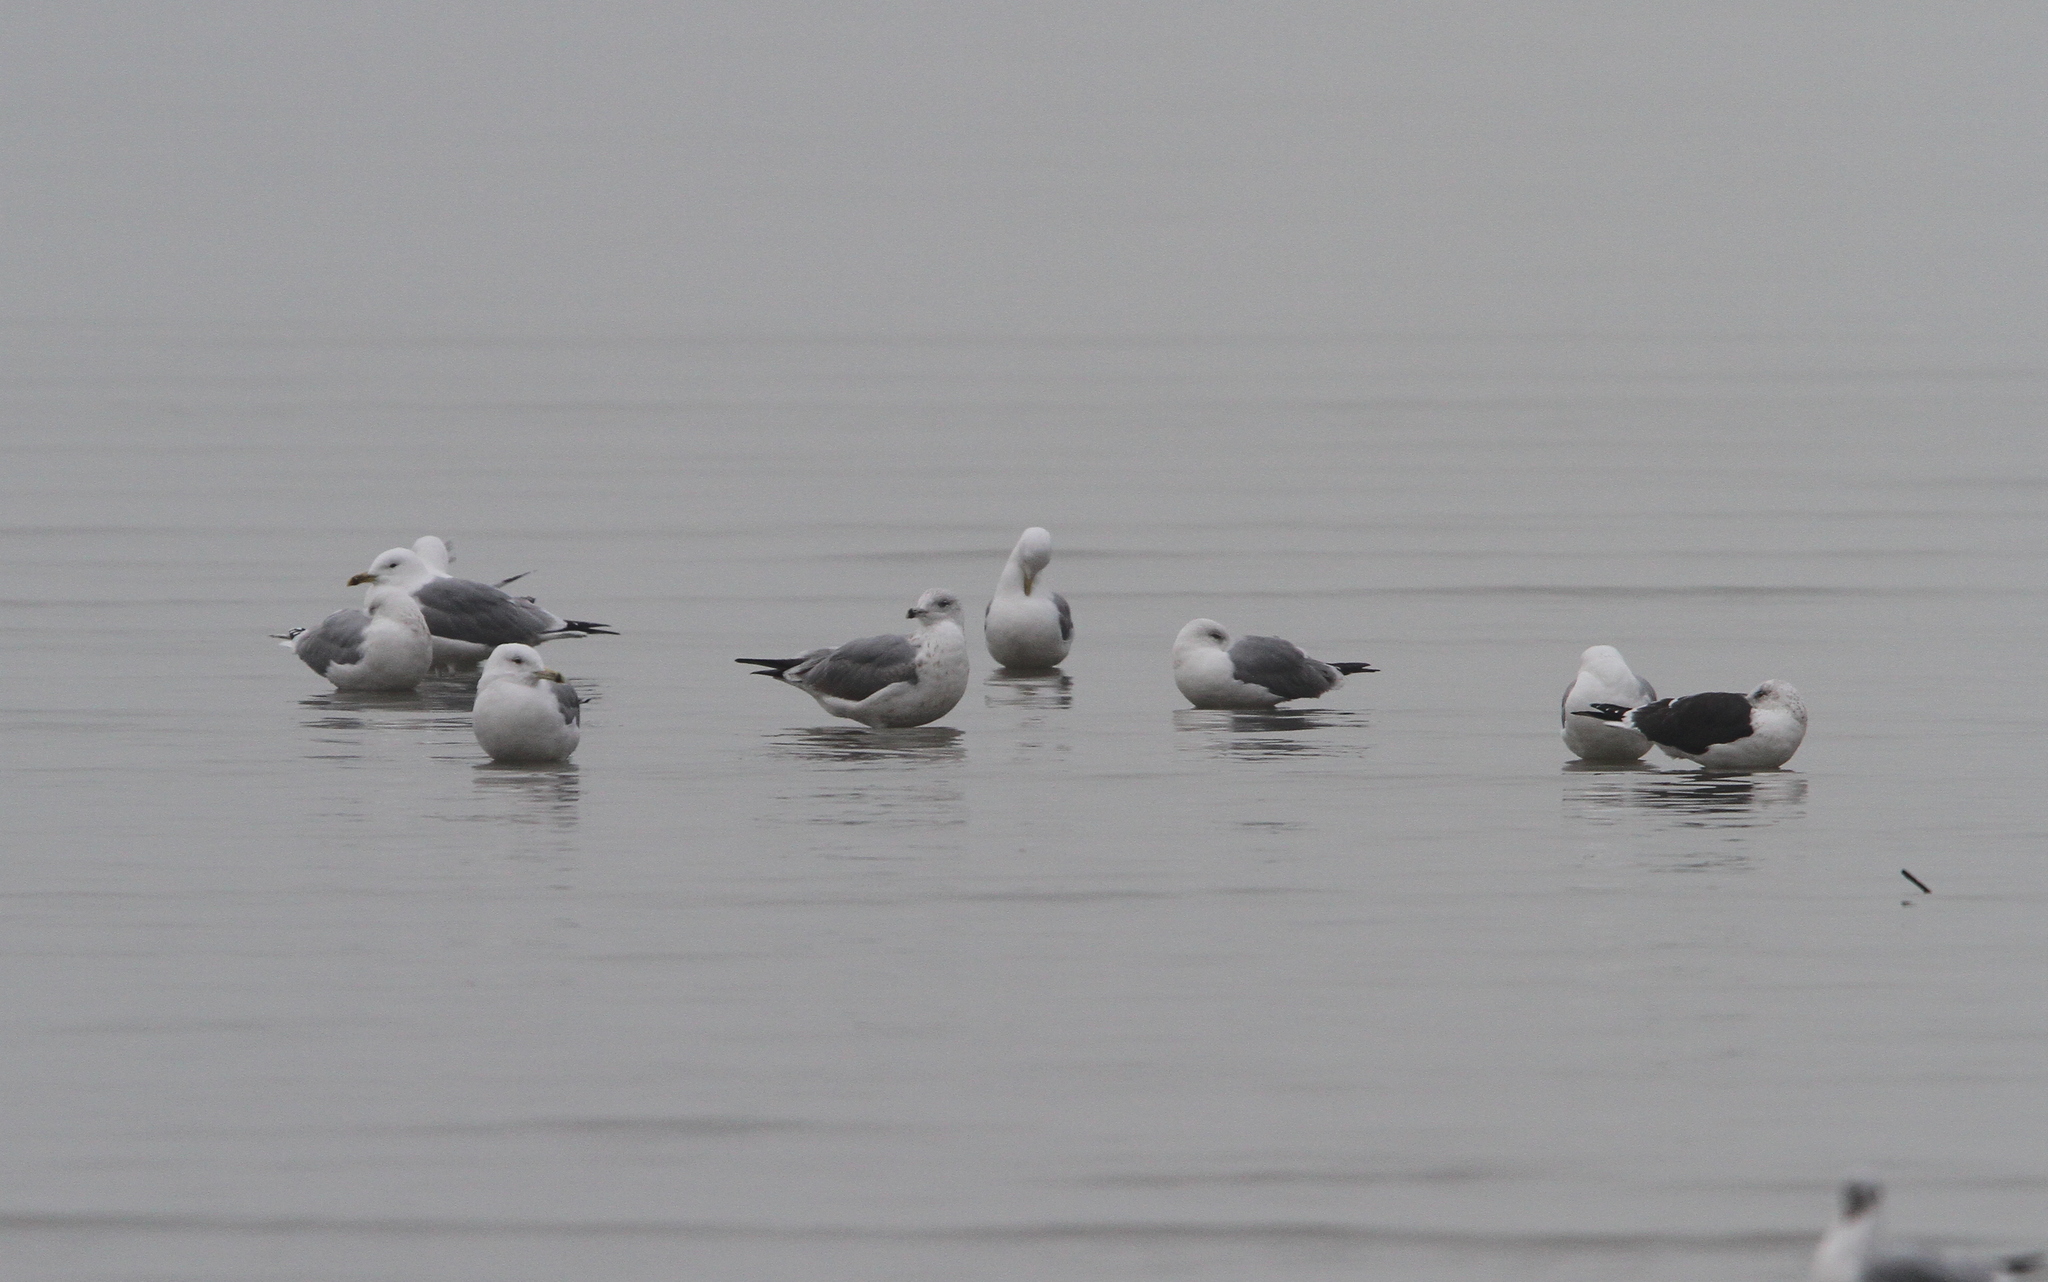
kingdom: Animalia
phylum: Chordata
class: Aves
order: Charadriiformes
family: Laridae
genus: Larus
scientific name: Larus fuscus
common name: Lesser black-backed gull
